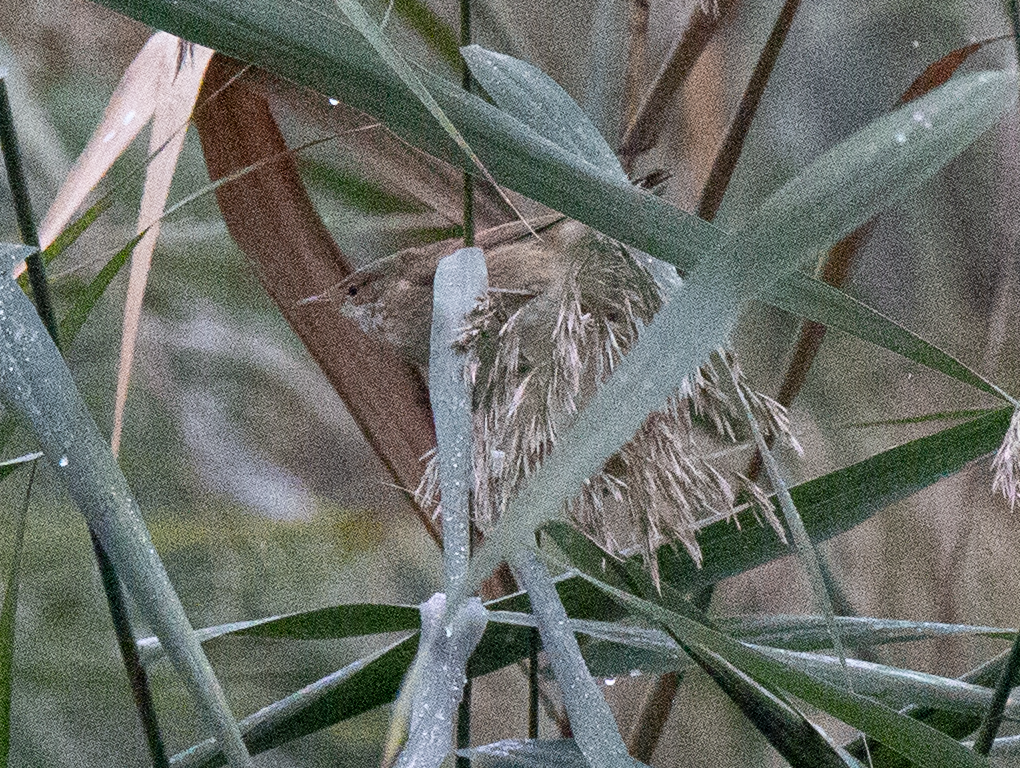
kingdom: Animalia
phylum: Chordata
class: Aves
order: Passeriformes
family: Acrocephalidae
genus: Acrocephalus
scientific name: Acrocephalus scirpaceus
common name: Eurasian reed warbler
